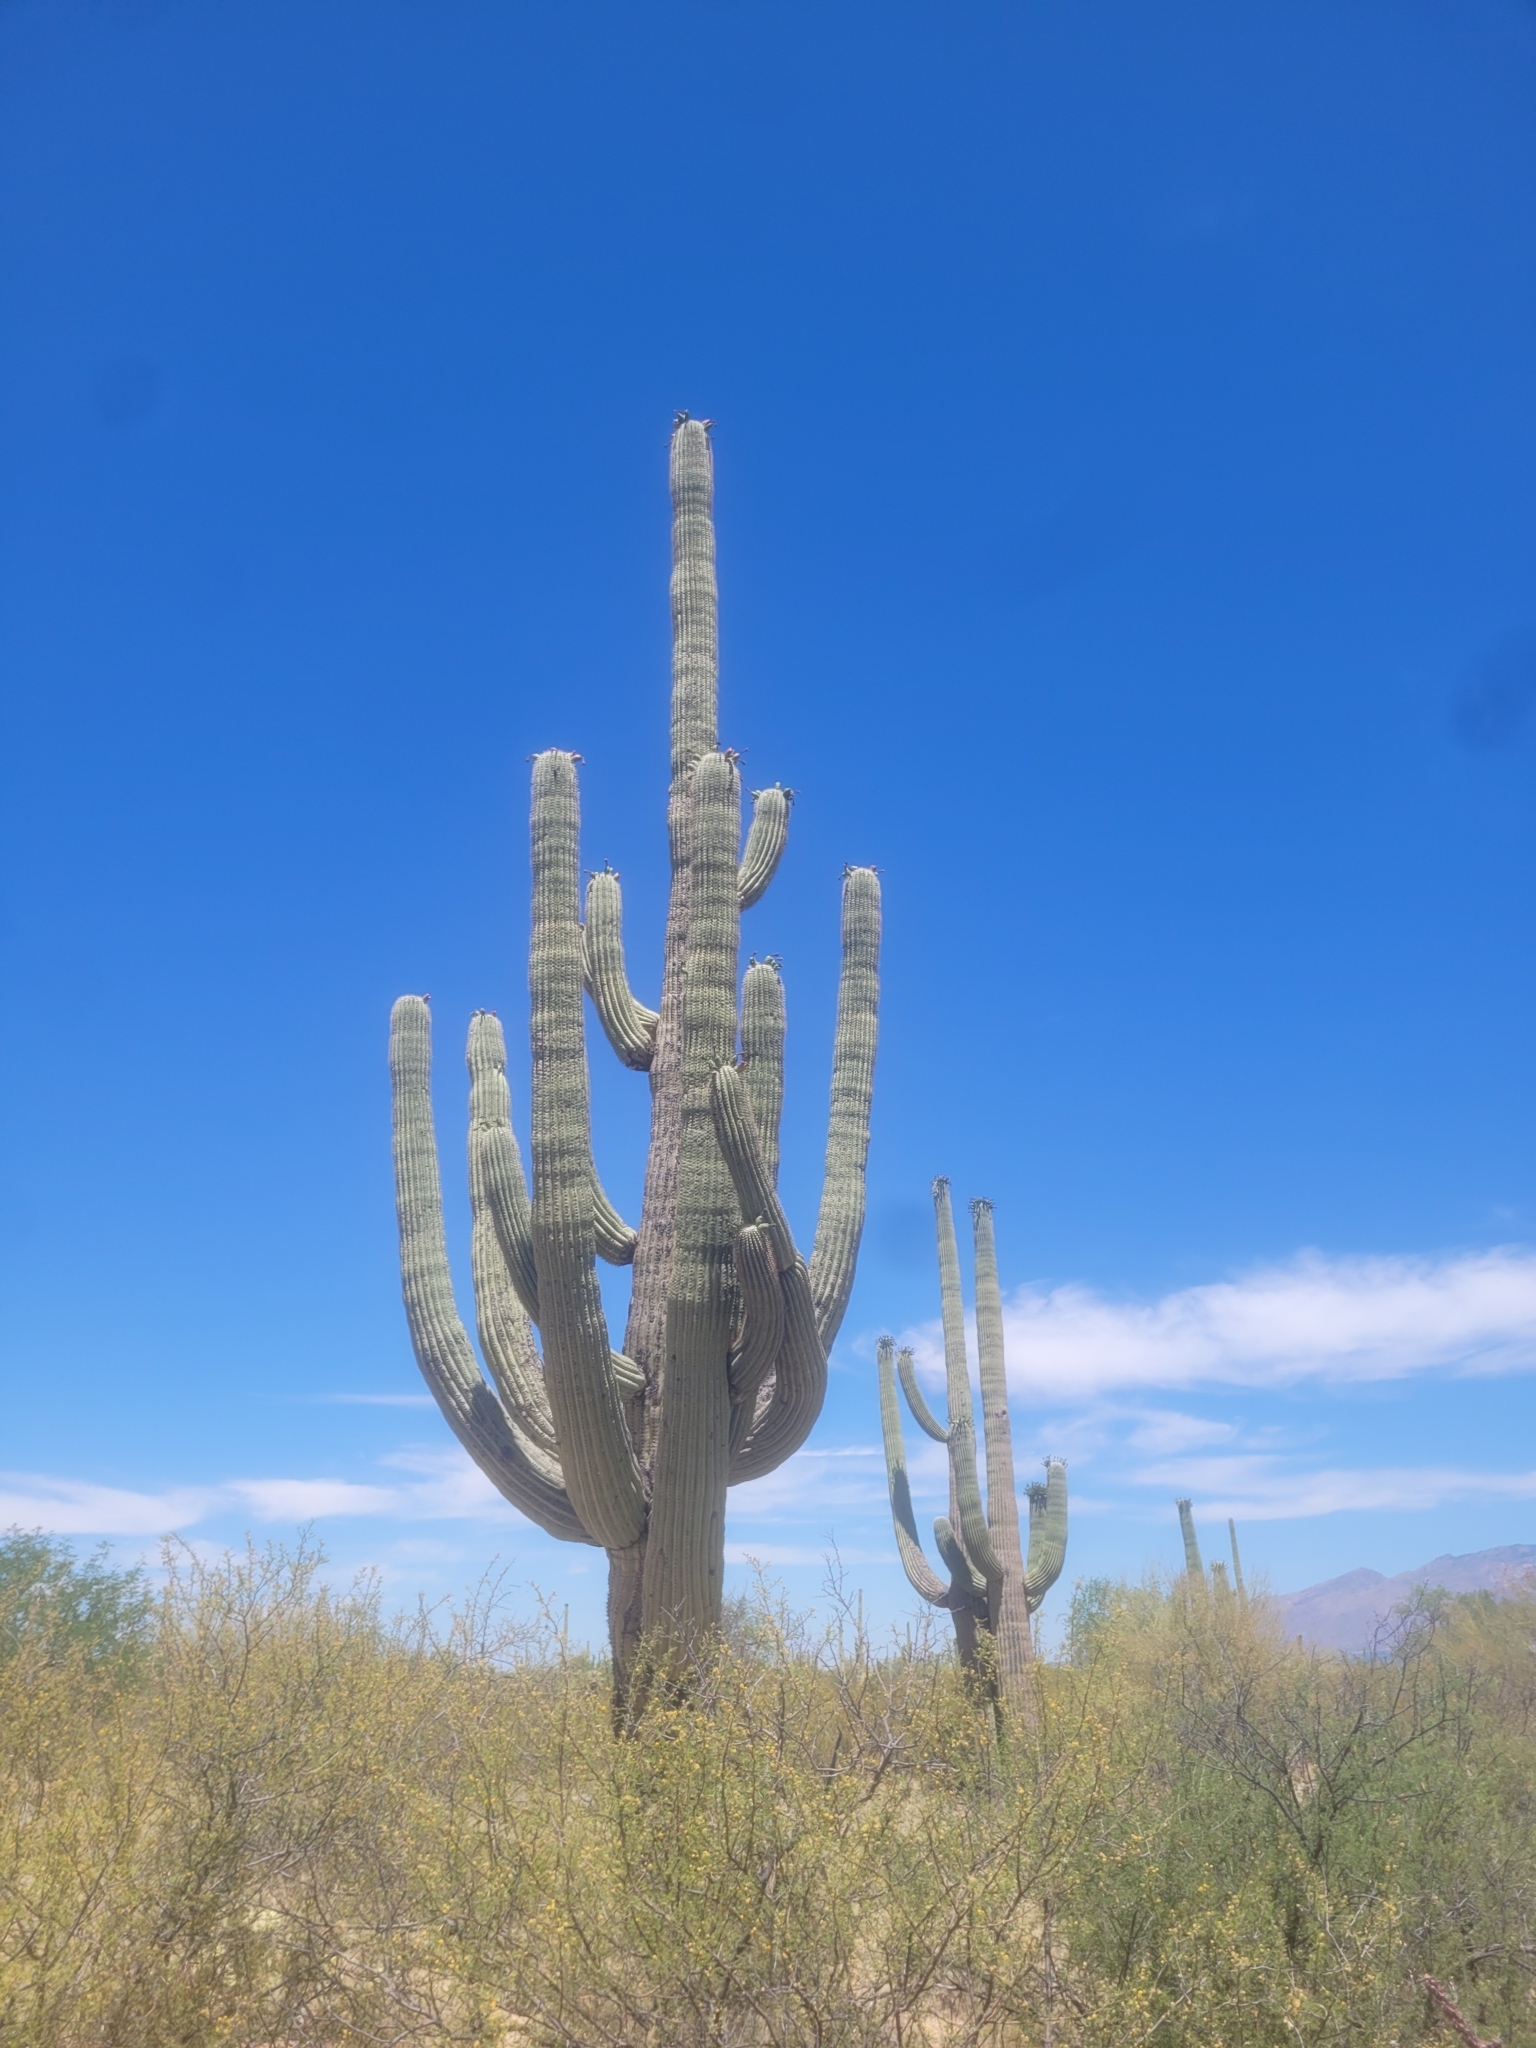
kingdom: Plantae
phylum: Tracheophyta
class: Magnoliopsida
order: Caryophyllales
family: Cactaceae
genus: Carnegiea
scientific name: Carnegiea gigantea
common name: Saguaro
